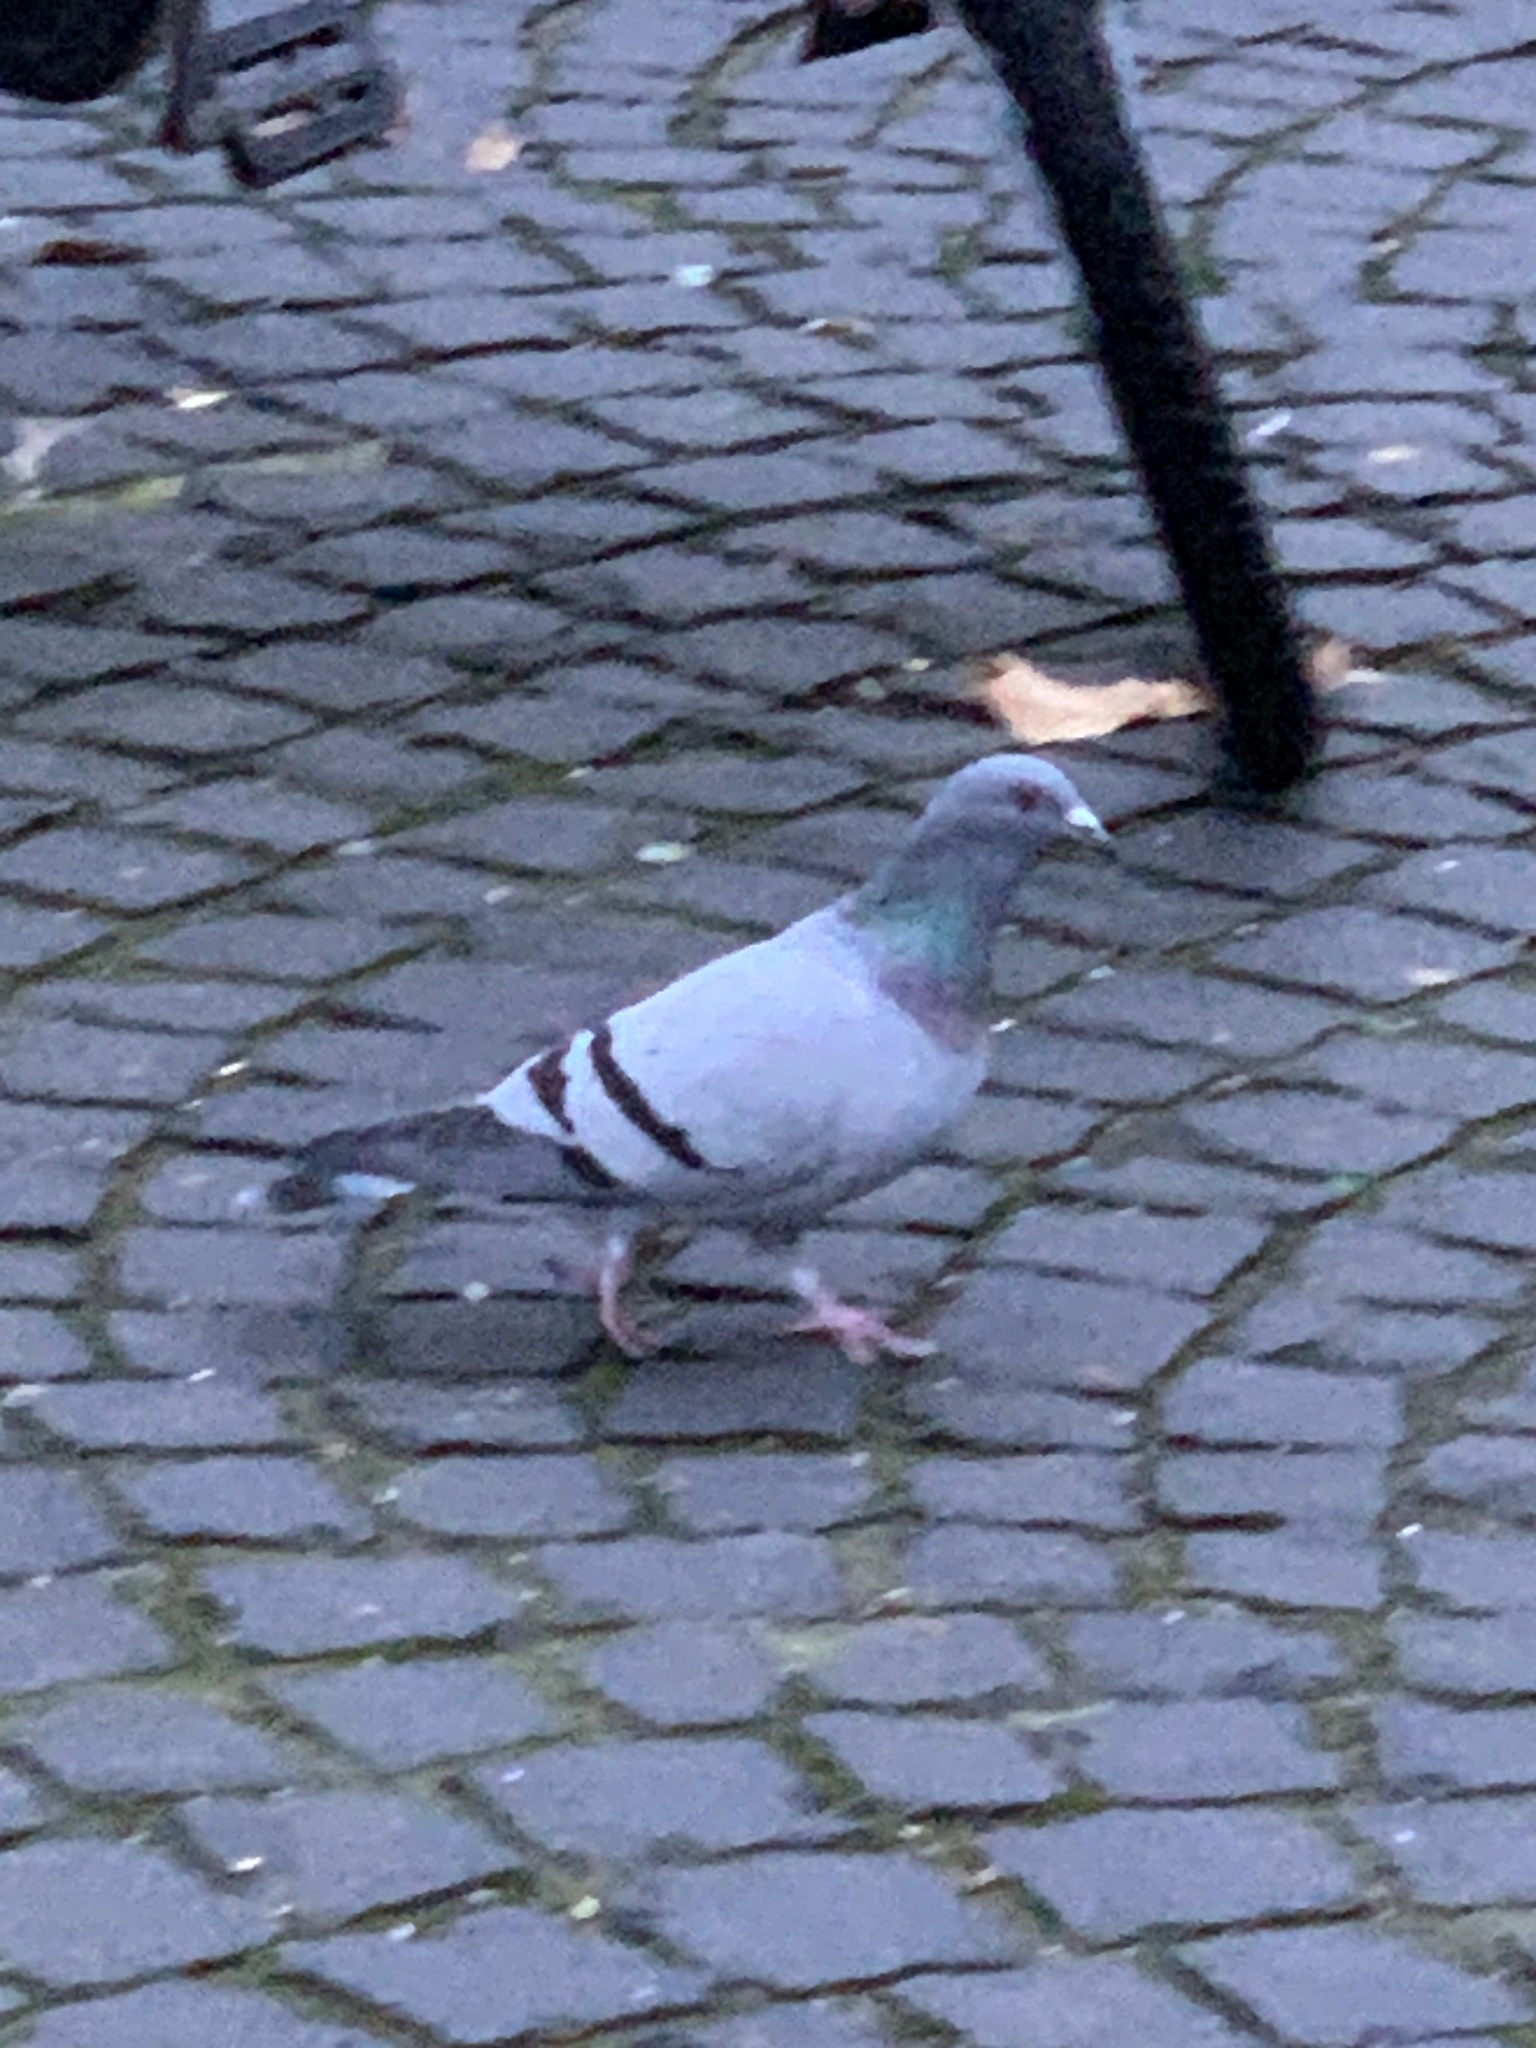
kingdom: Animalia
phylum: Chordata
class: Aves
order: Columbiformes
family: Columbidae
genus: Columba
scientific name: Columba livia
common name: Rock pigeon
